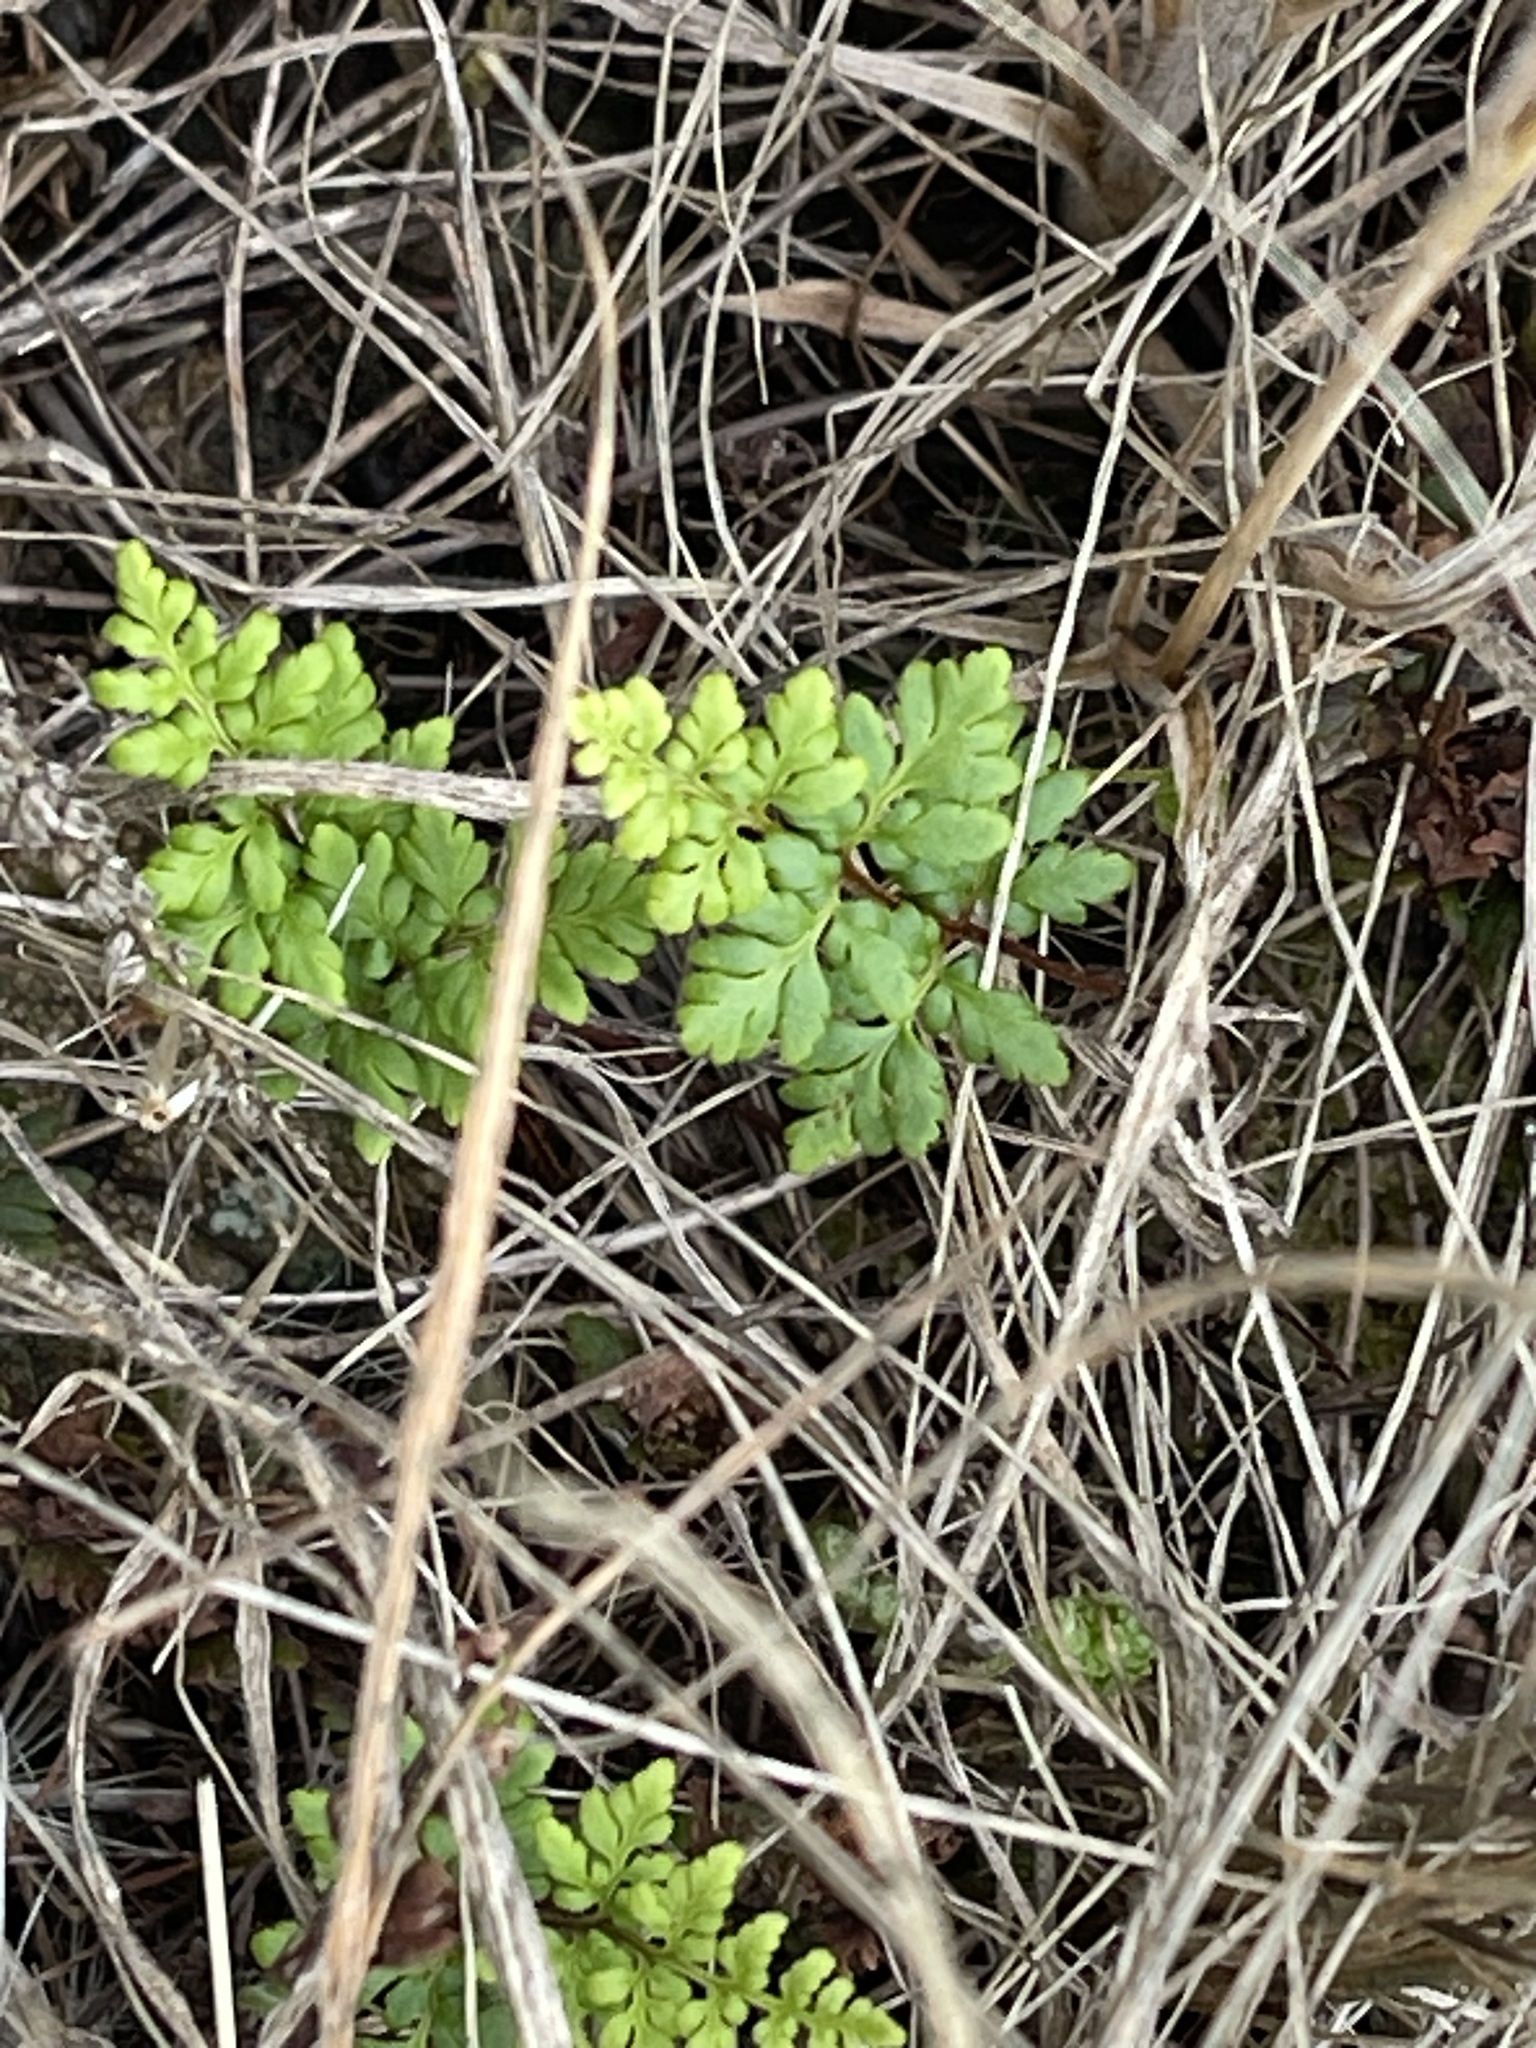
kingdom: Plantae
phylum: Tracheophyta
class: Polypodiopsida
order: Polypodiales
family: Pteridaceae
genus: Cheilanthes
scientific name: Cheilanthes sieberi
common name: Mulga fern
